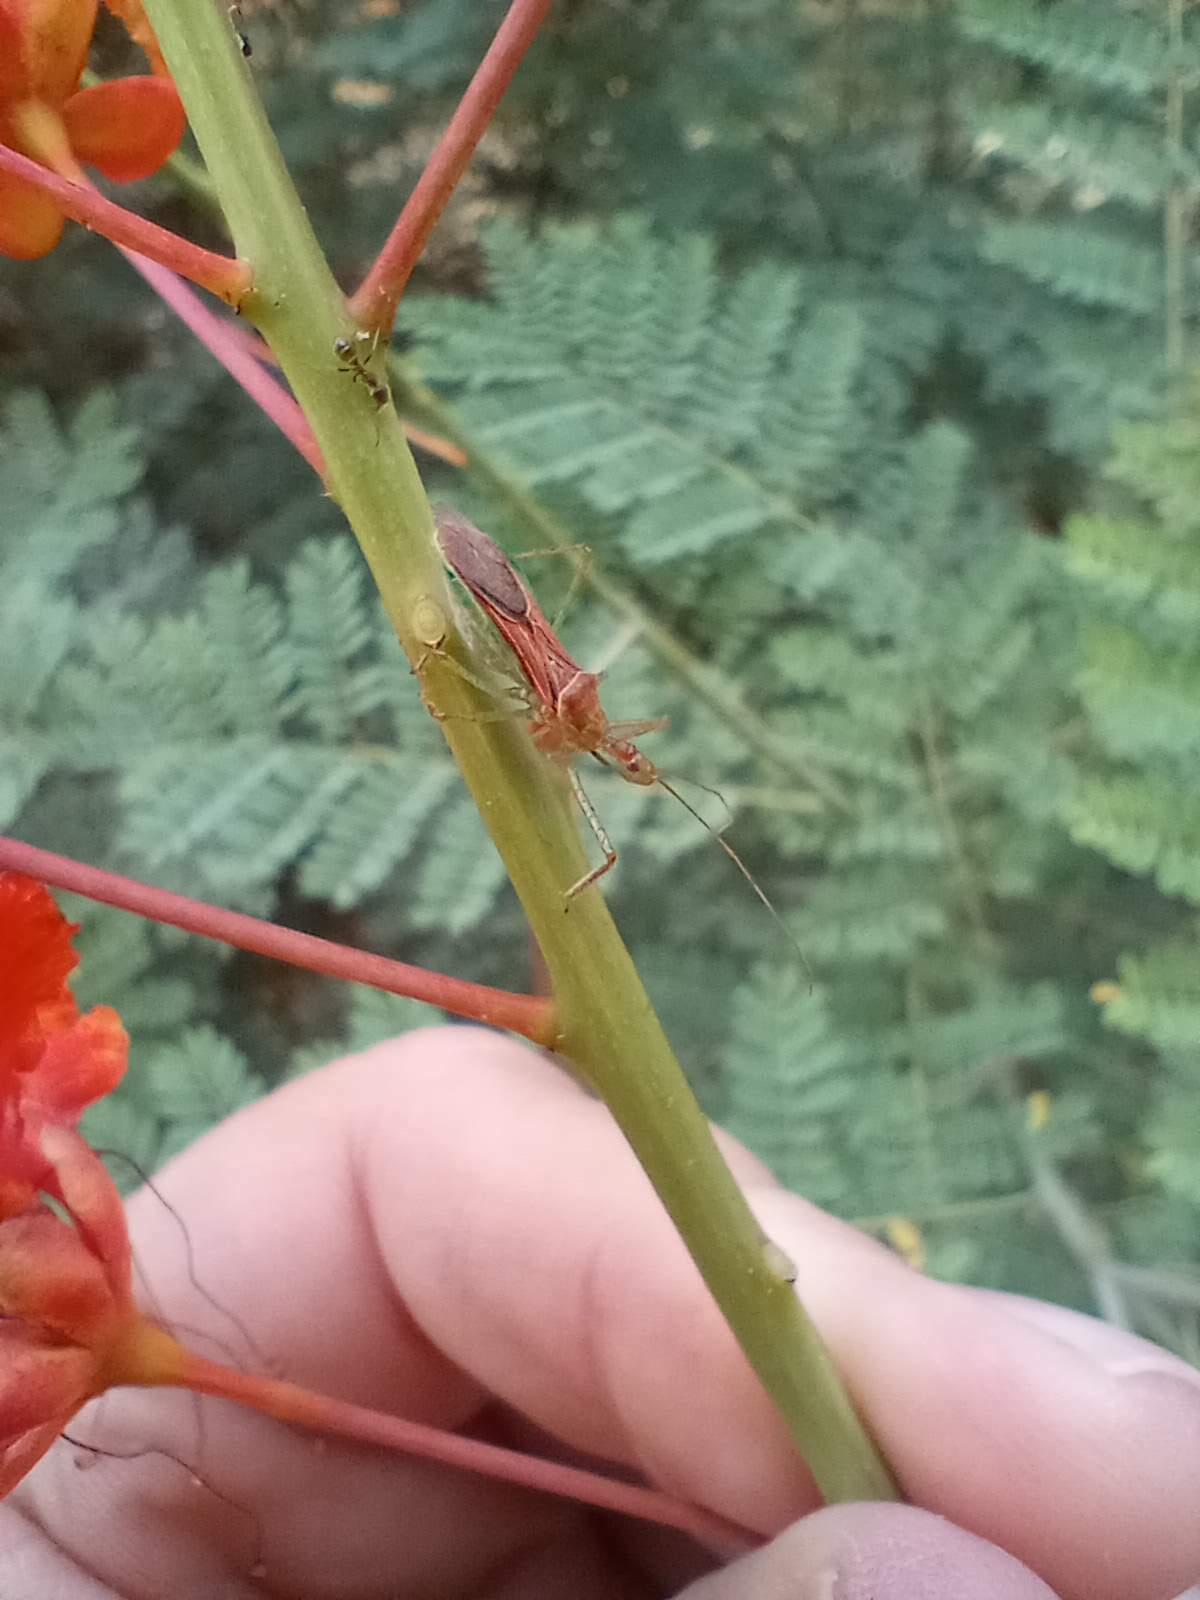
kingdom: Animalia
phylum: Arthropoda
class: Insecta
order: Hemiptera
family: Reduviidae
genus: Zelus
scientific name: Zelus renardii
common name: Assassin bug
